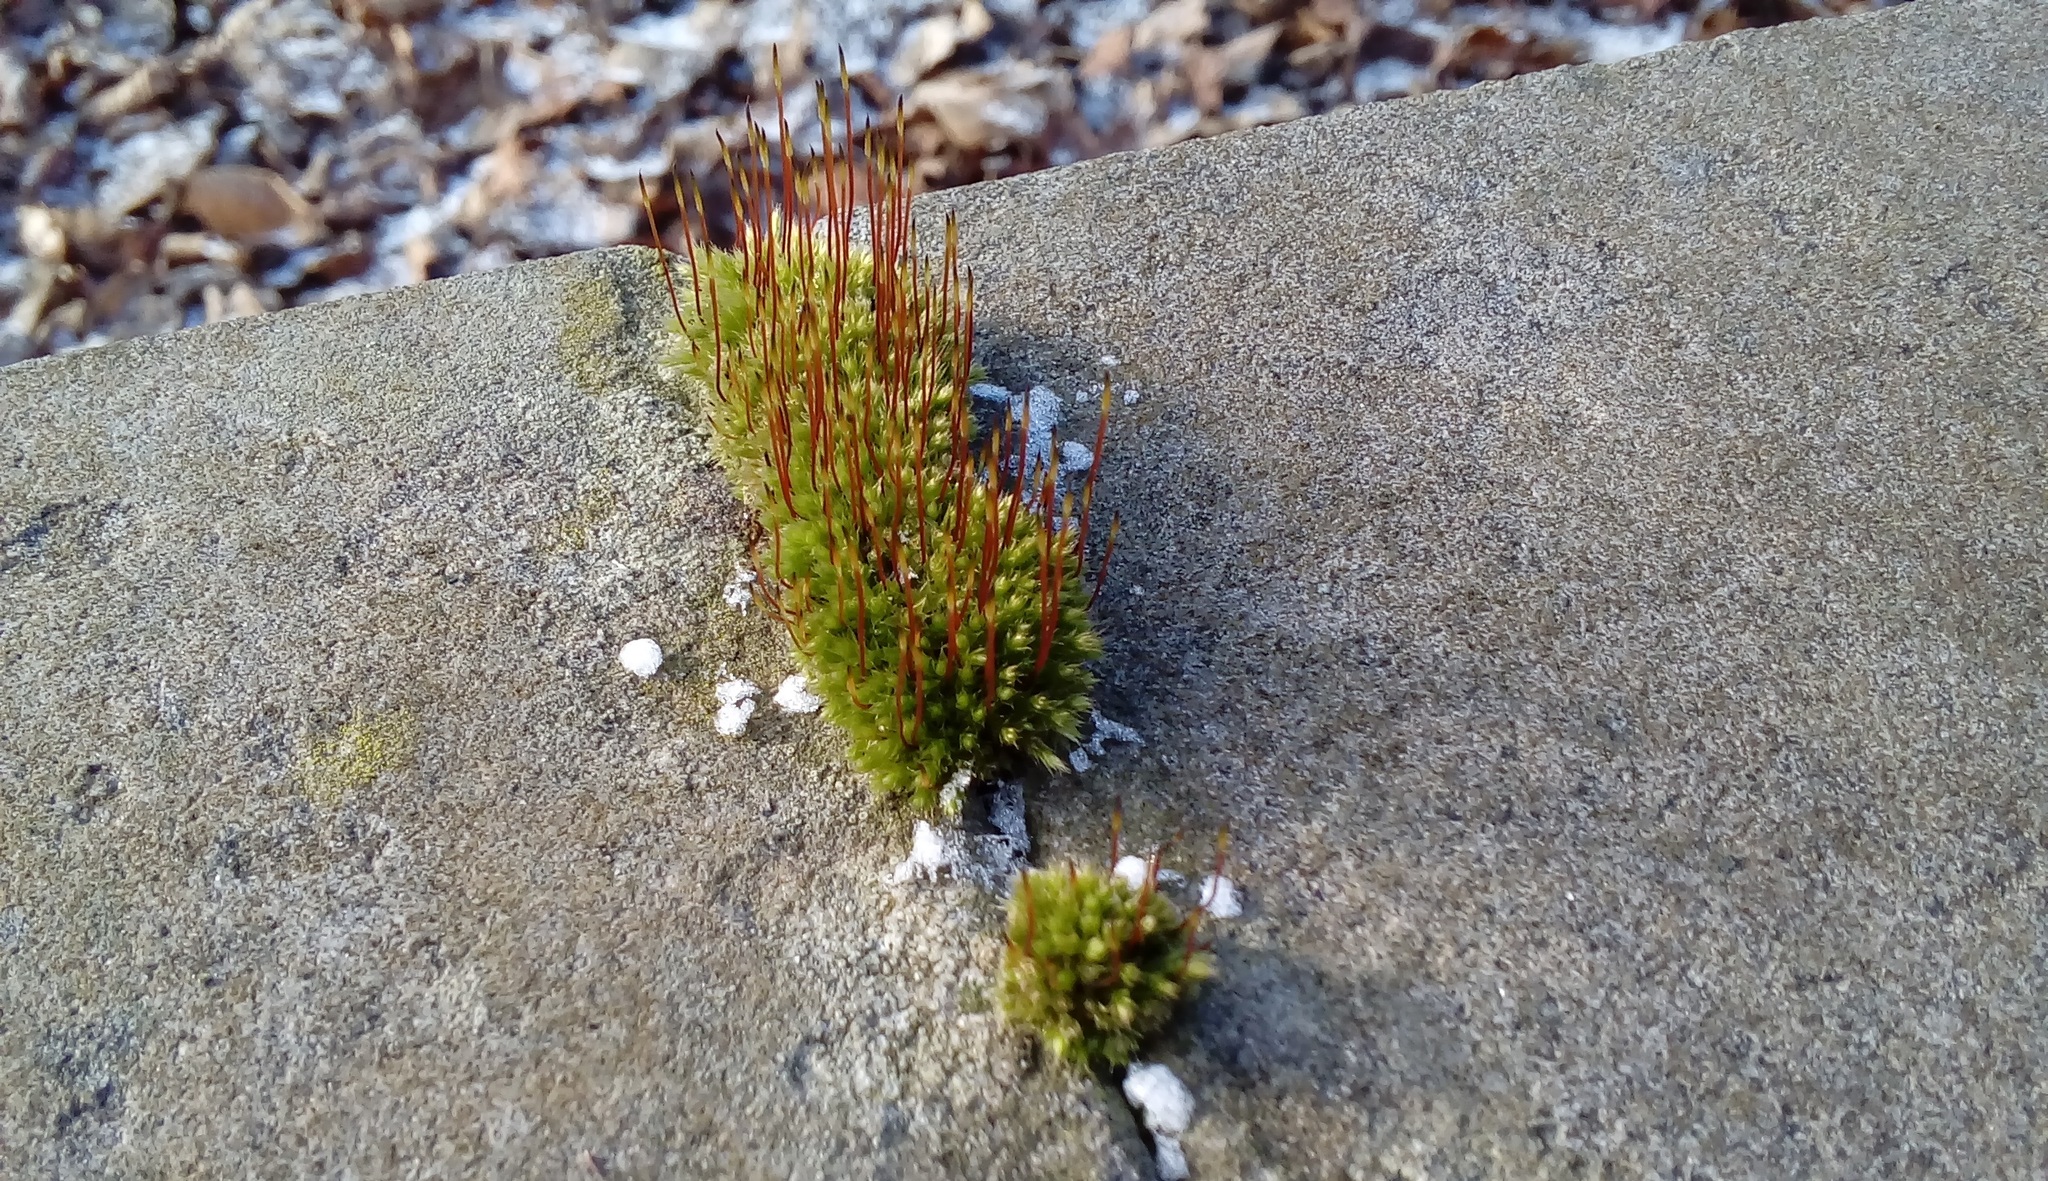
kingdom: Plantae
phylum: Bryophyta
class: Bryopsida
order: Bryales
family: Bryaceae
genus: Rosulabryum
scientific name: Rosulabryum capillare
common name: Capillary thread-moss
